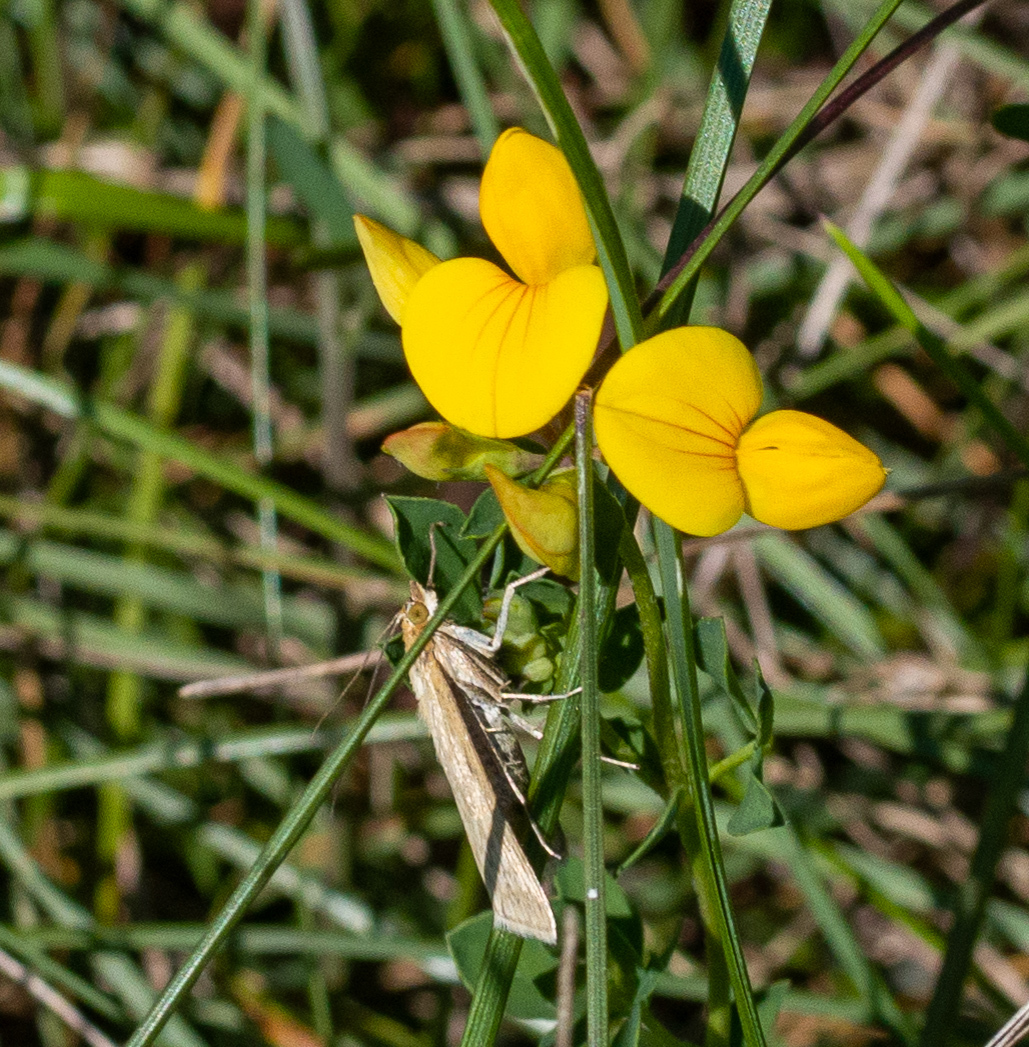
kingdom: Plantae
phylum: Tracheophyta
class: Magnoliopsida
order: Fabales
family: Fabaceae
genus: Lotus
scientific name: Lotus corniculatus
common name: Common bird's-foot-trefoil
